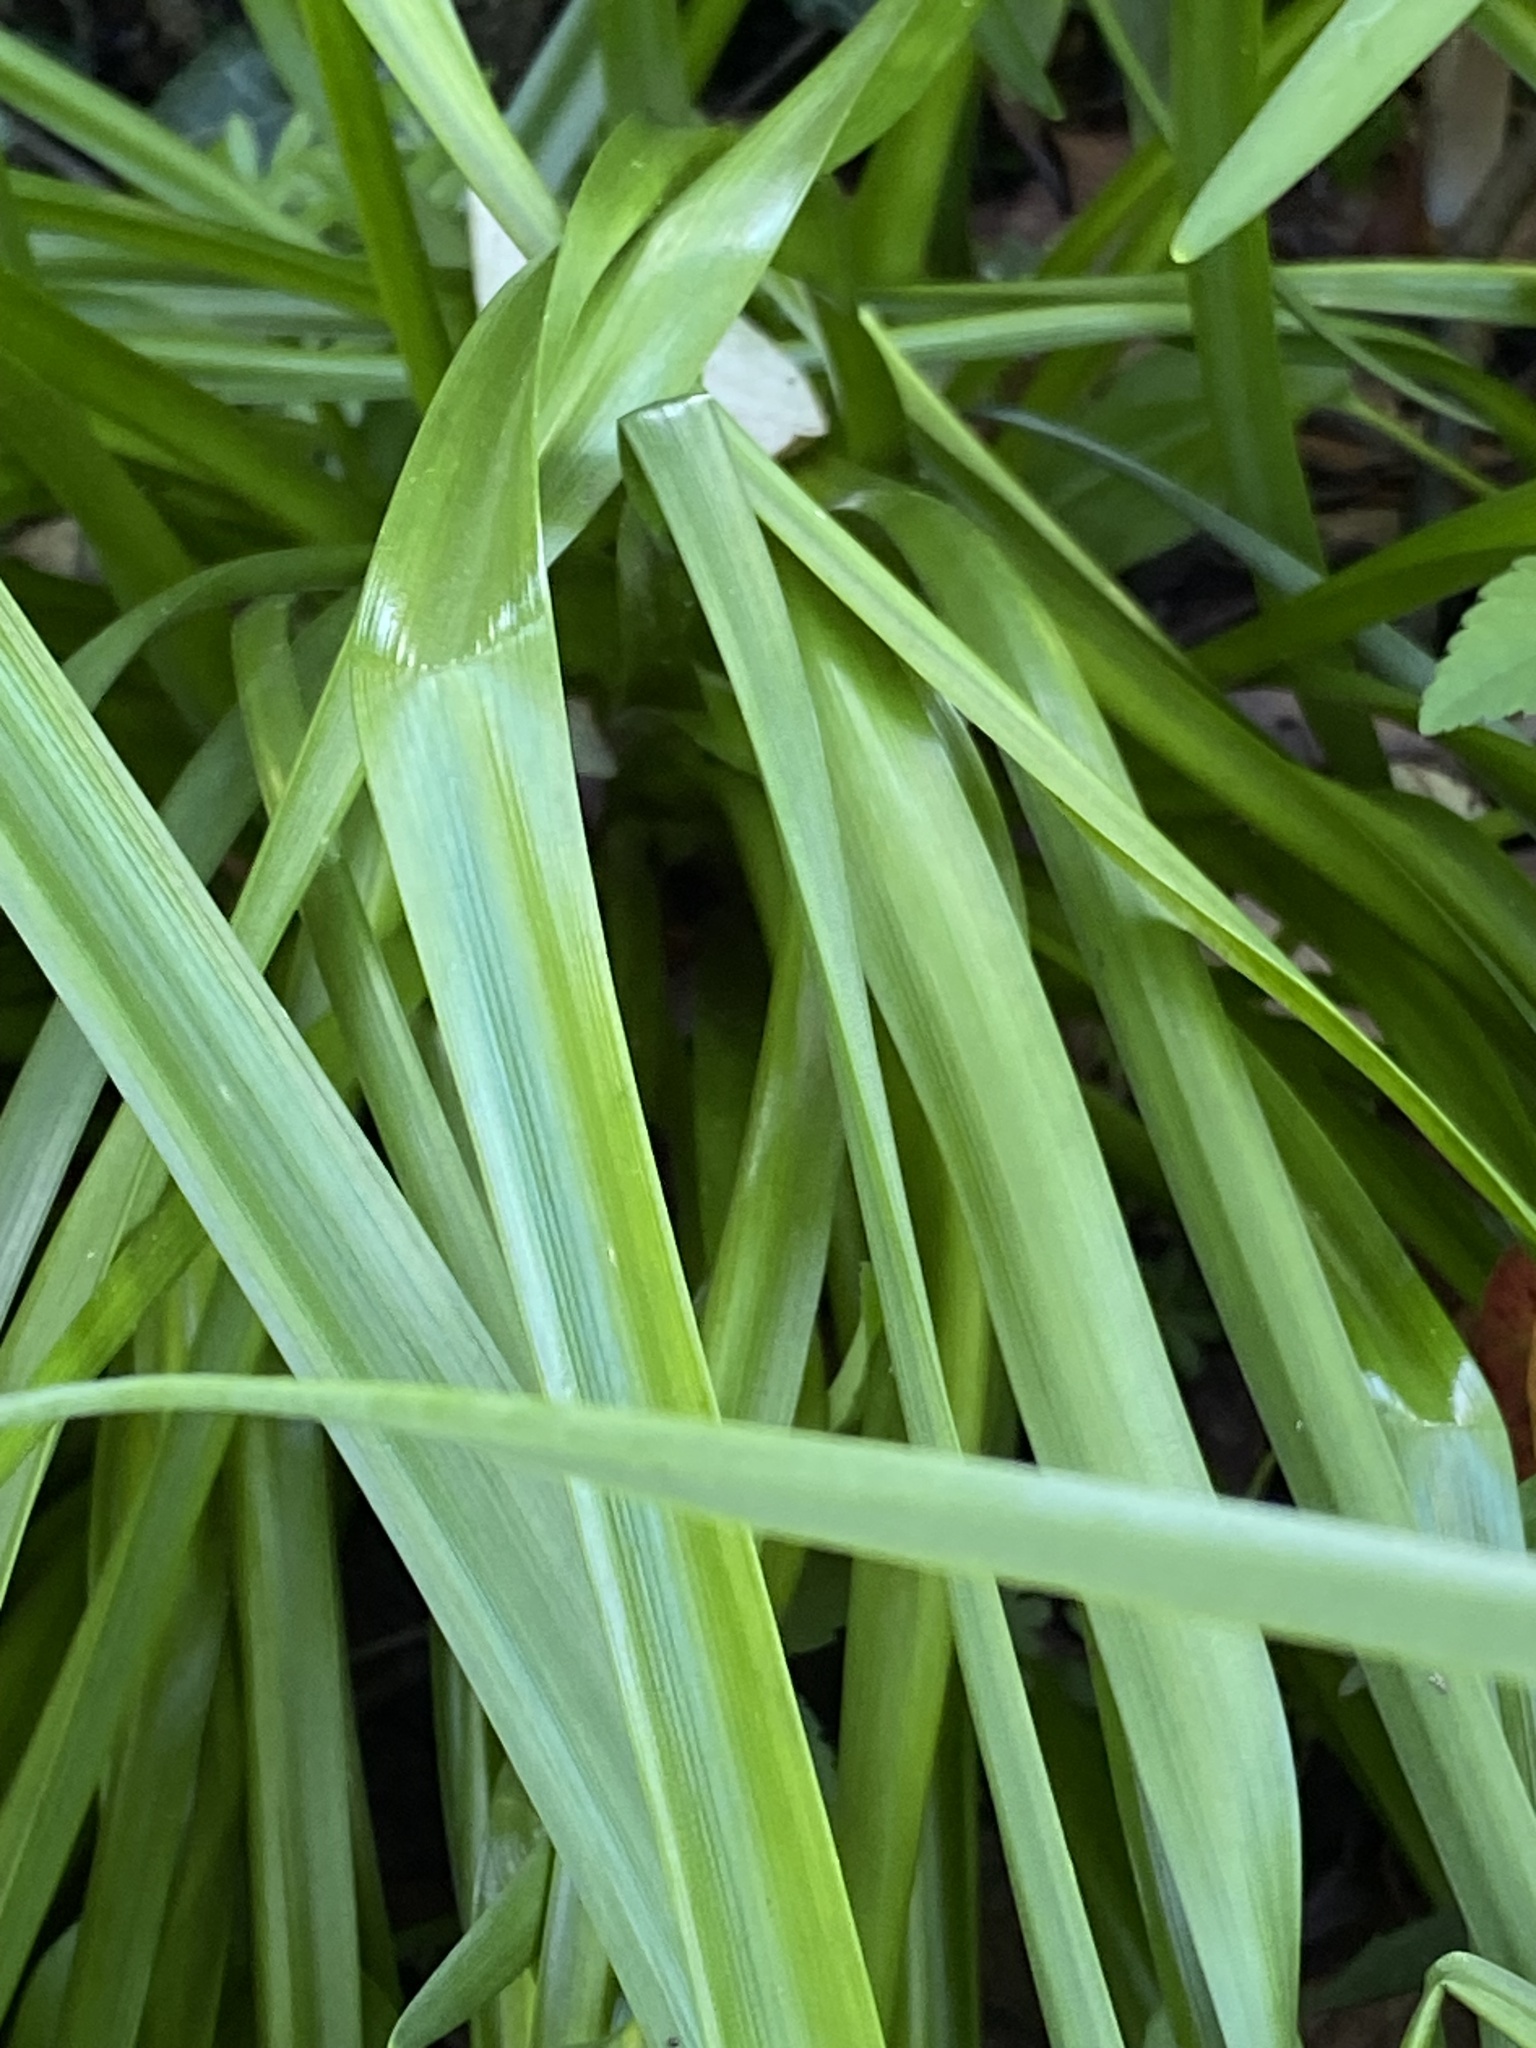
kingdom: Plantae
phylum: Tracheophyta
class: Liliopsida
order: Asparagales
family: Amaryllidaceae
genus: Leucojum
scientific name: Leucojum aestivum
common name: Summer snowflake
